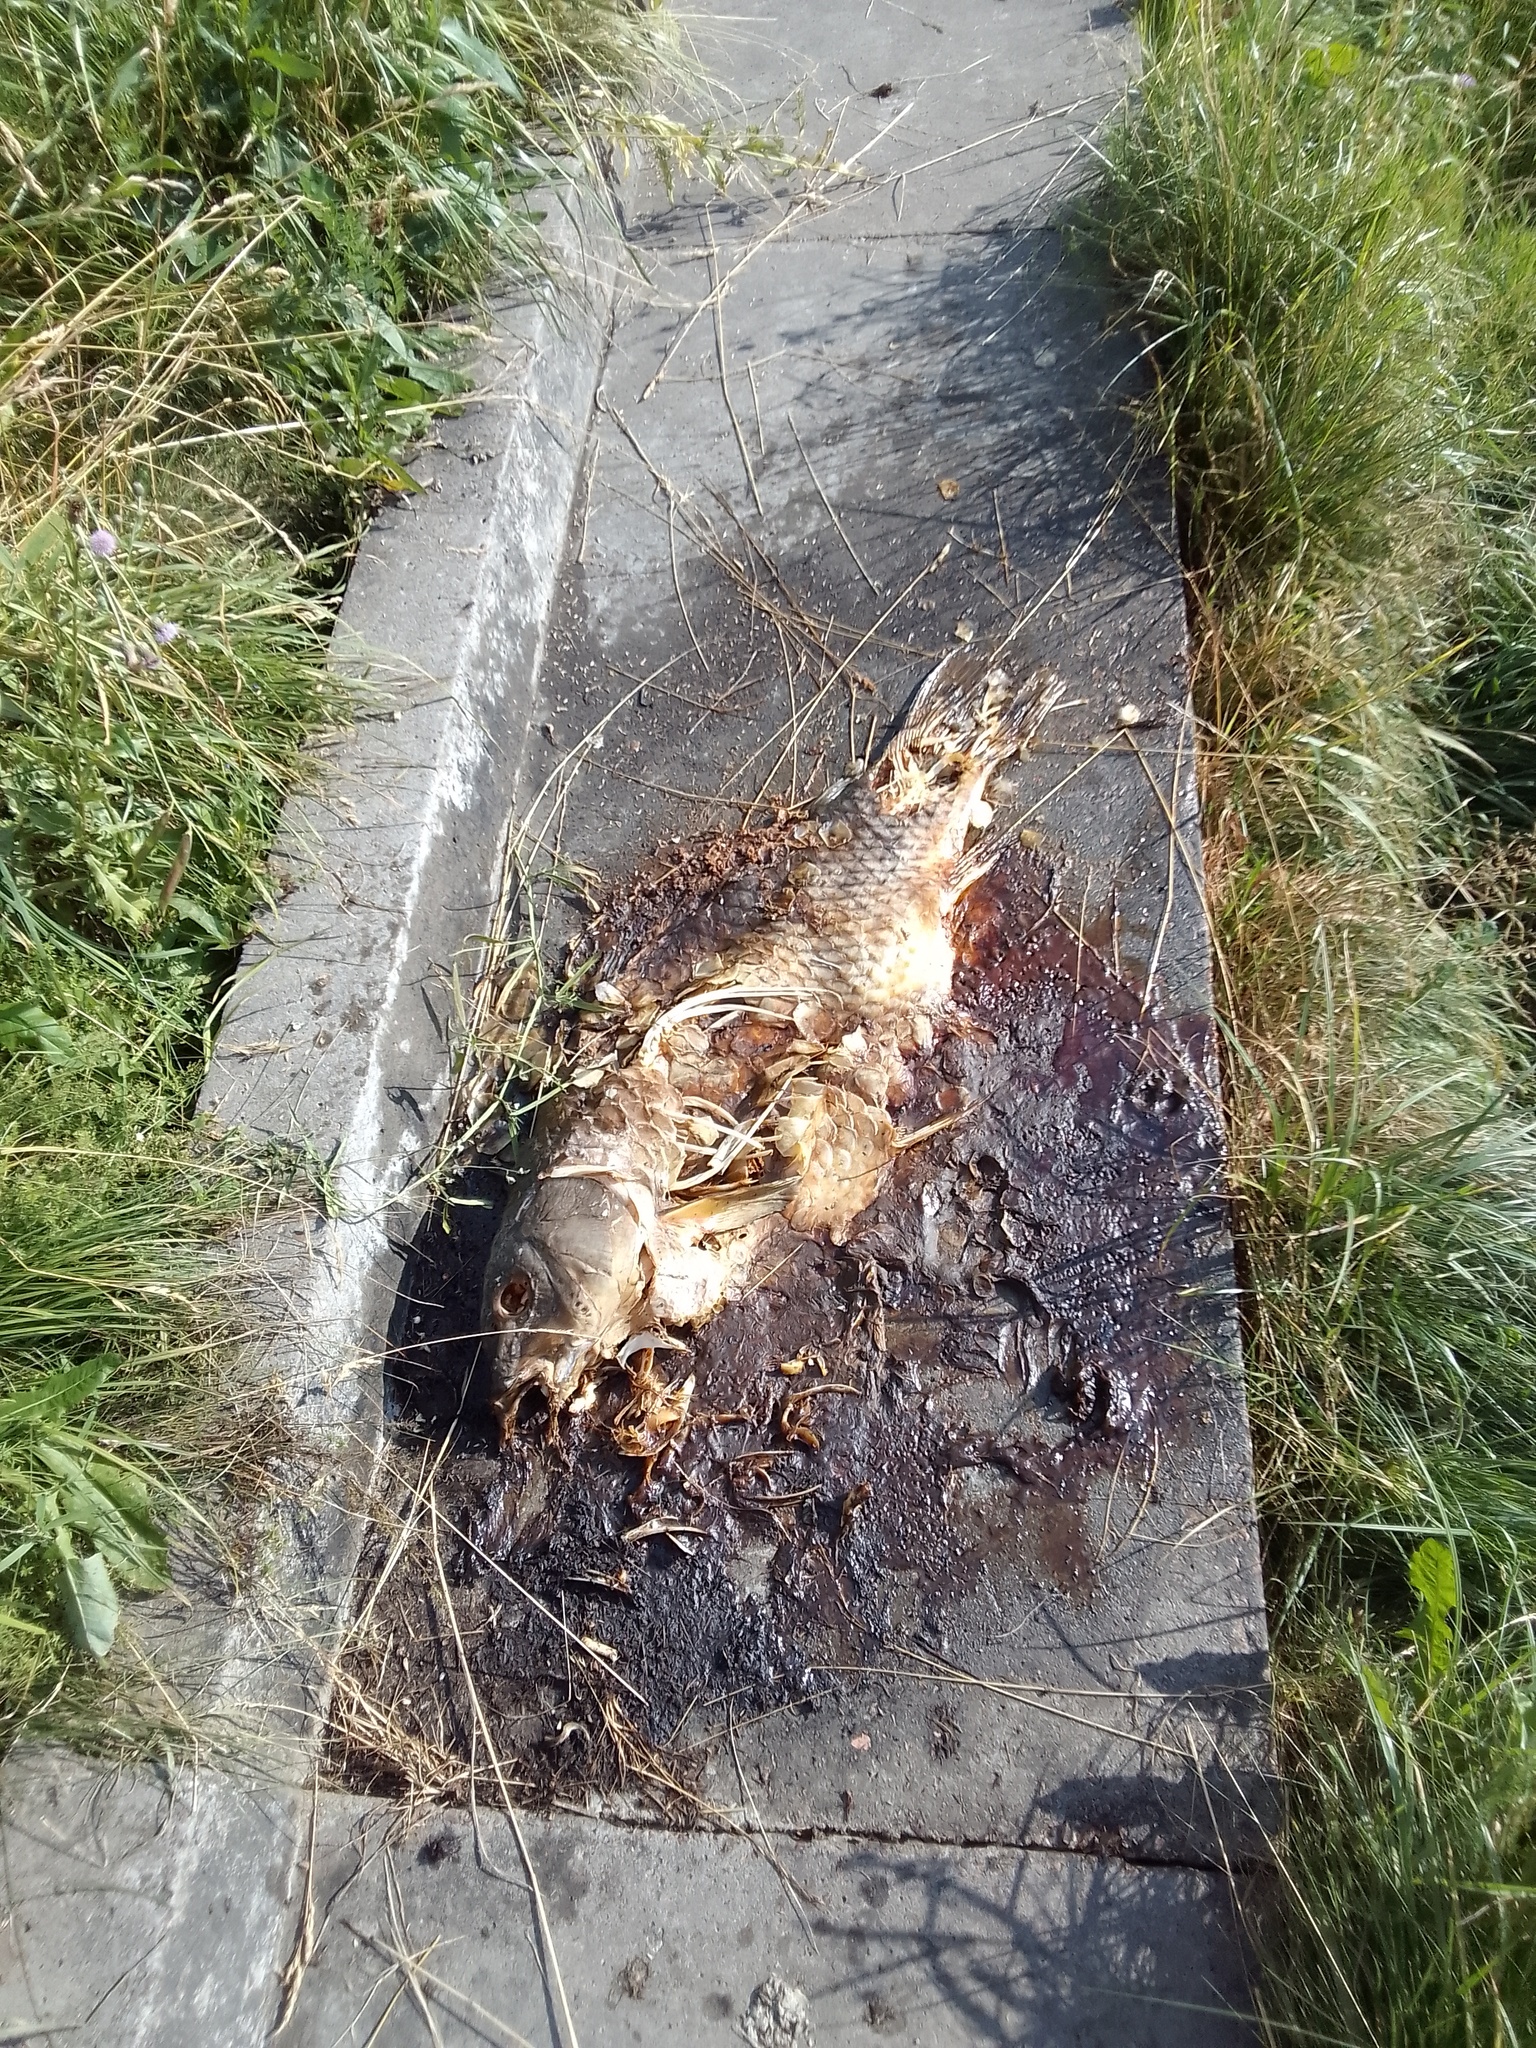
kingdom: Animalia
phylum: Chordata
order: Cypriniformes
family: Cyprinidae
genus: Cyprinus
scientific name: Cyprinus carpio
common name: Common carp
